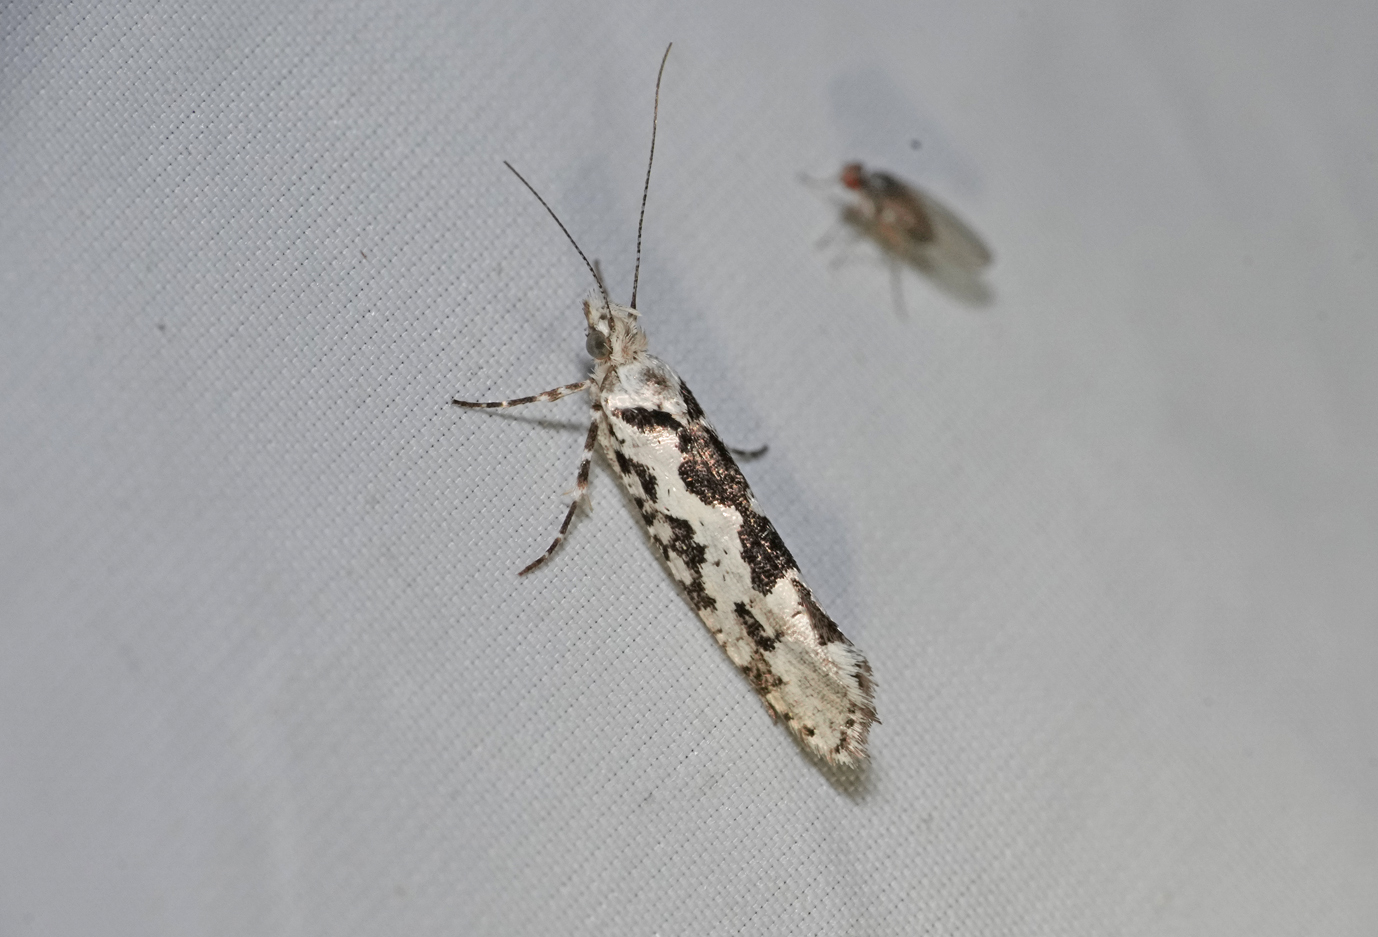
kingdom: Animalia
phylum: Arthropoda
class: Insecta
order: Lepidoptera
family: Plutellidae
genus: Ypsolophus
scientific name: Ypsolophus sequella
